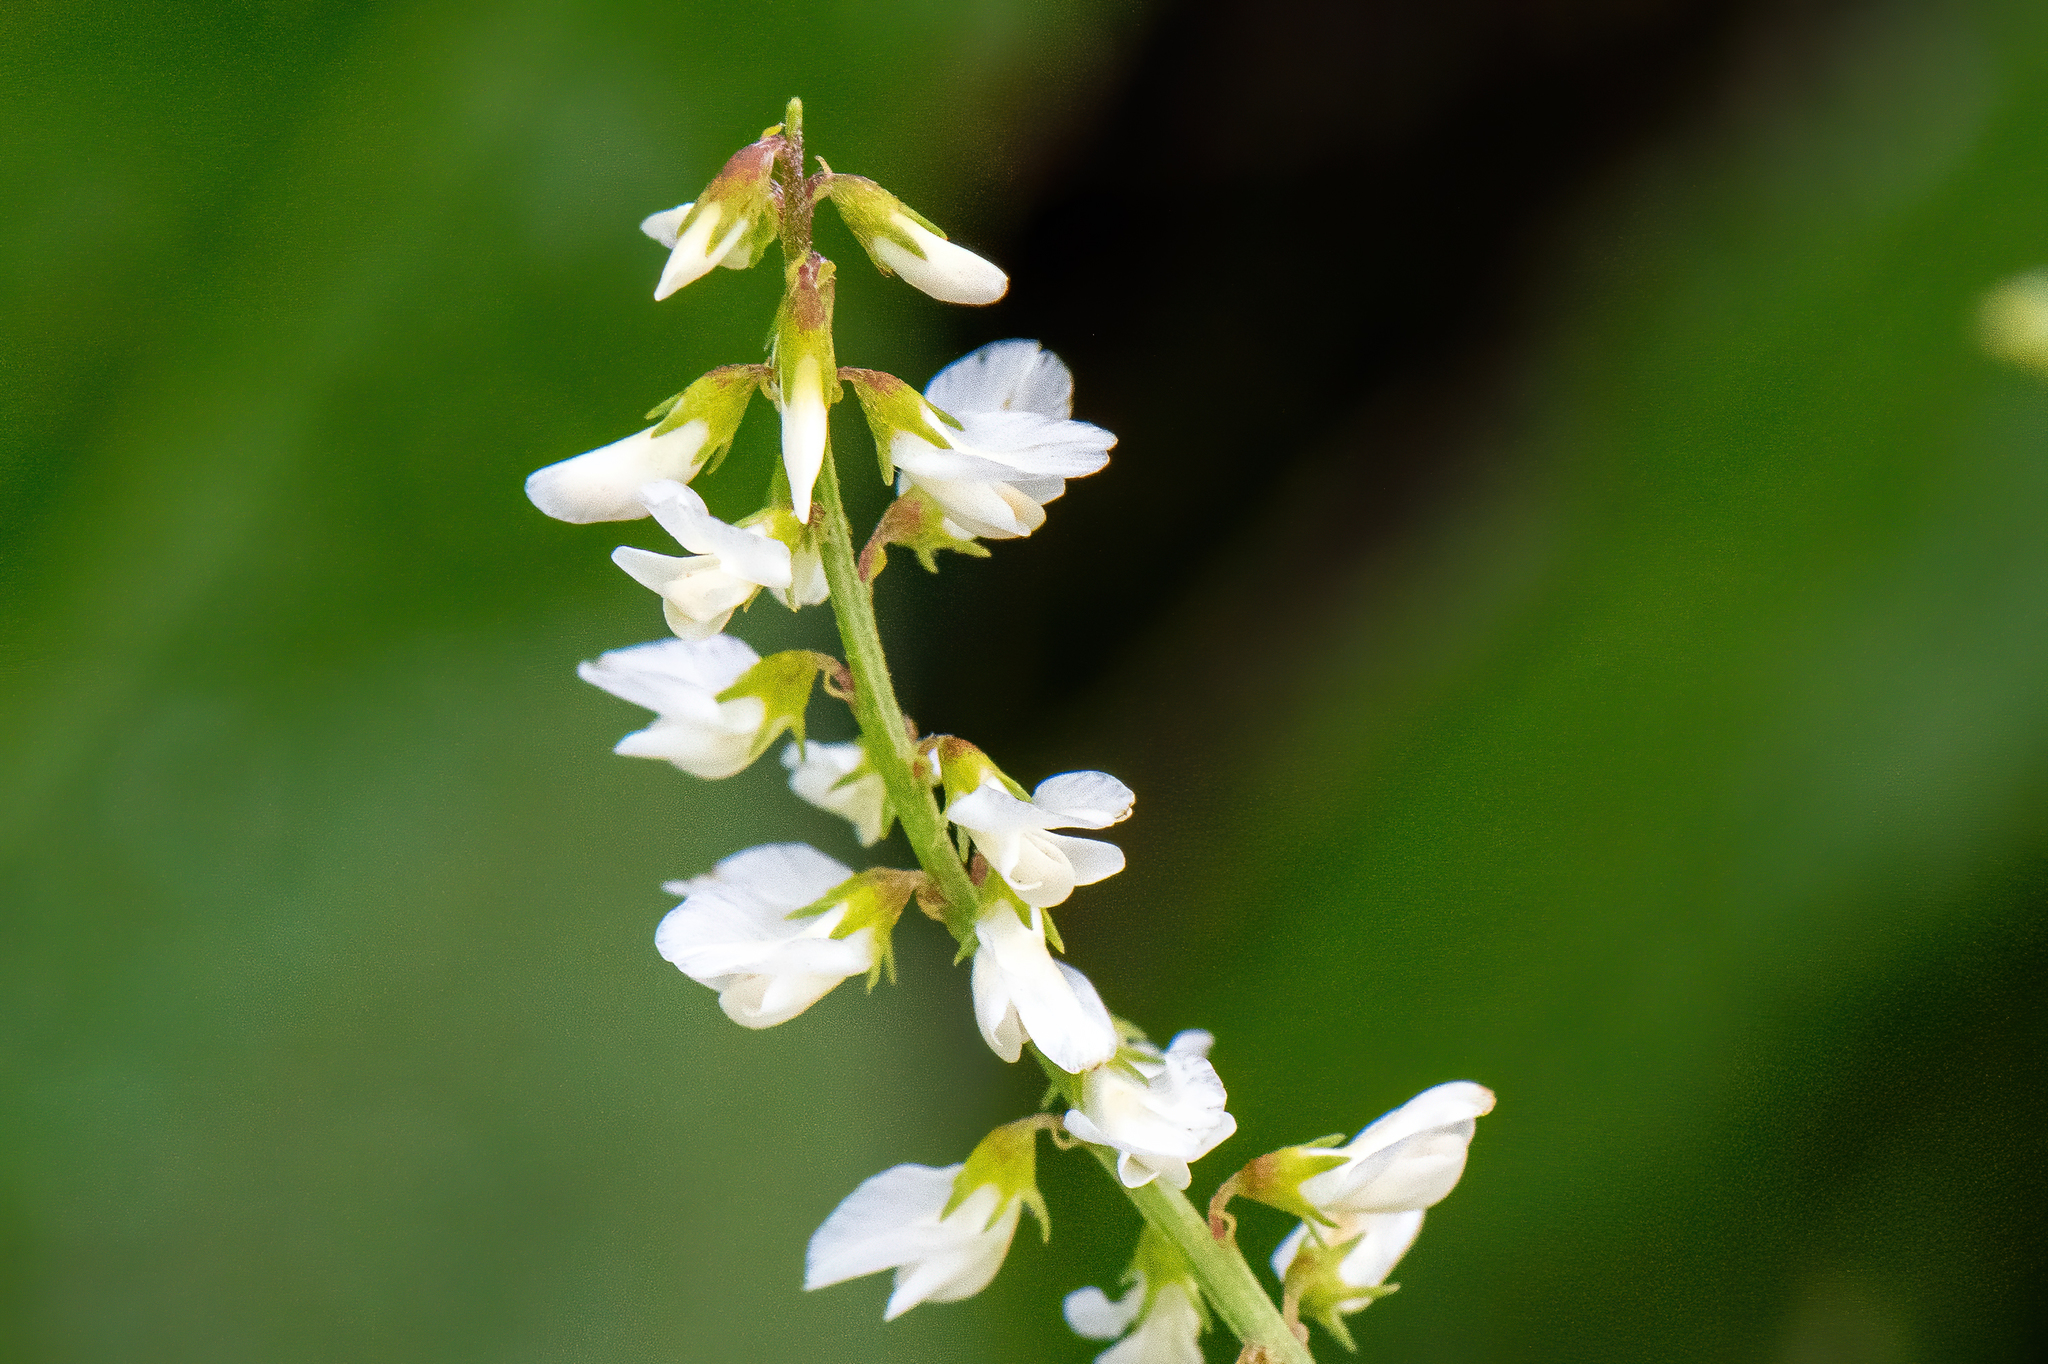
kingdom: Plantae
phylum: Tracheophyta
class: Magnoliopsida
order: Fabales
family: Fabaceae
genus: Melilotus
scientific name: Melilotus albus
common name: White melilot
